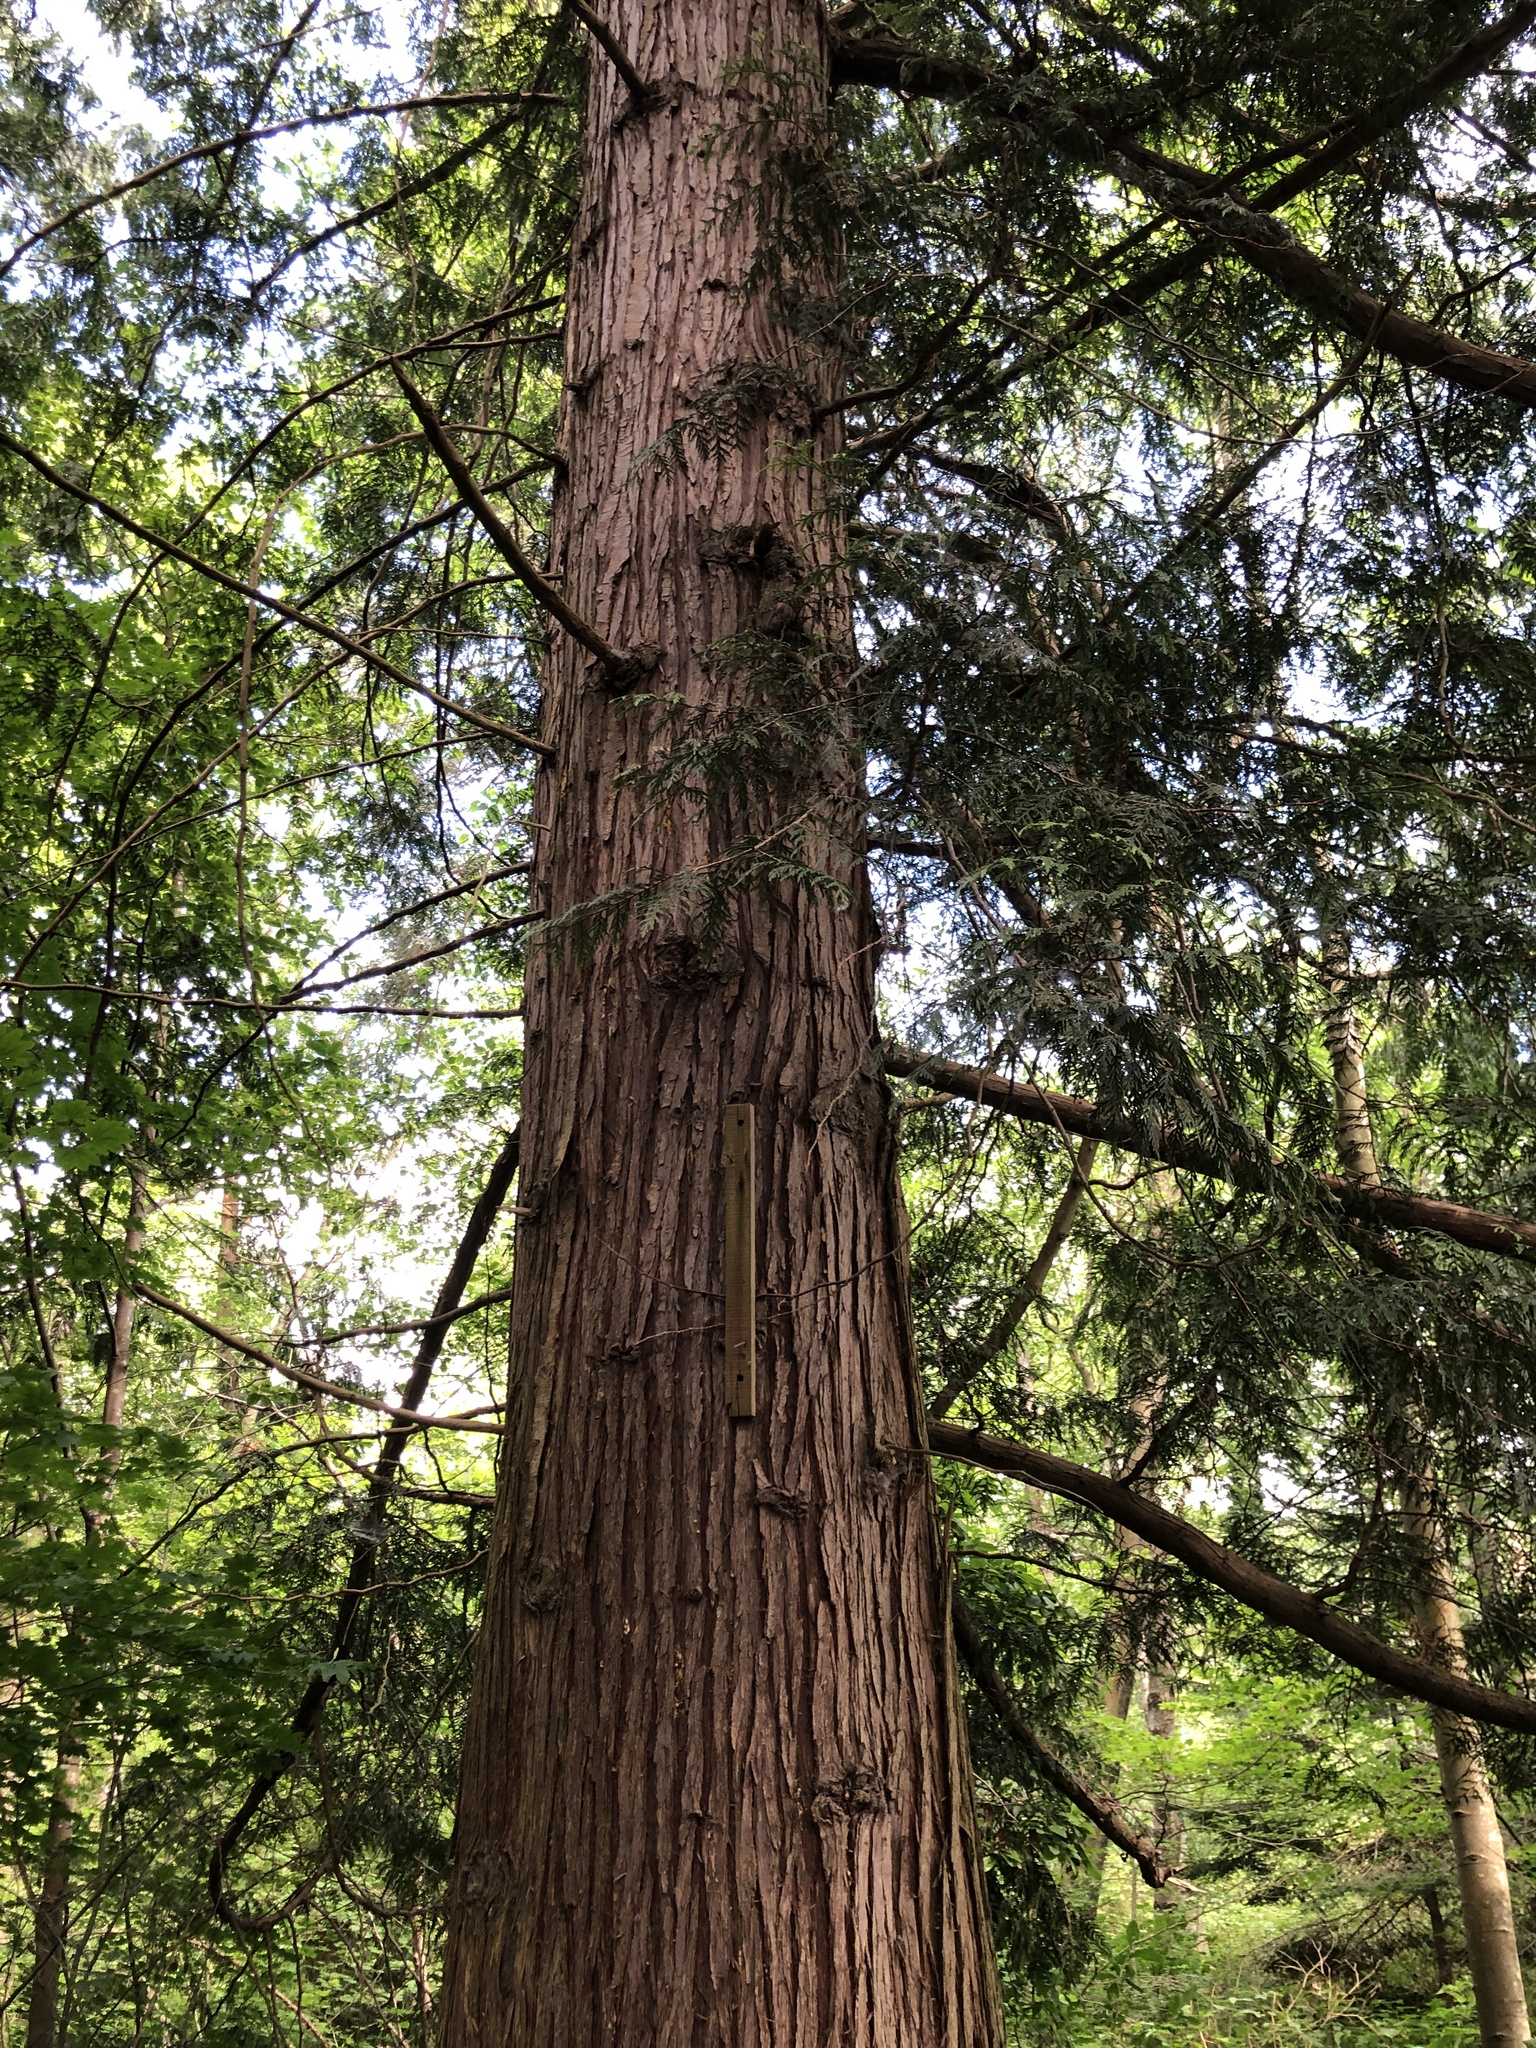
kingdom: Plantae
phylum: Tracheophyta
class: Pinopsida
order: Pinales
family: Cupressaceae
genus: Thuja
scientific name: Thuja plicata
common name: Western red-cedar
